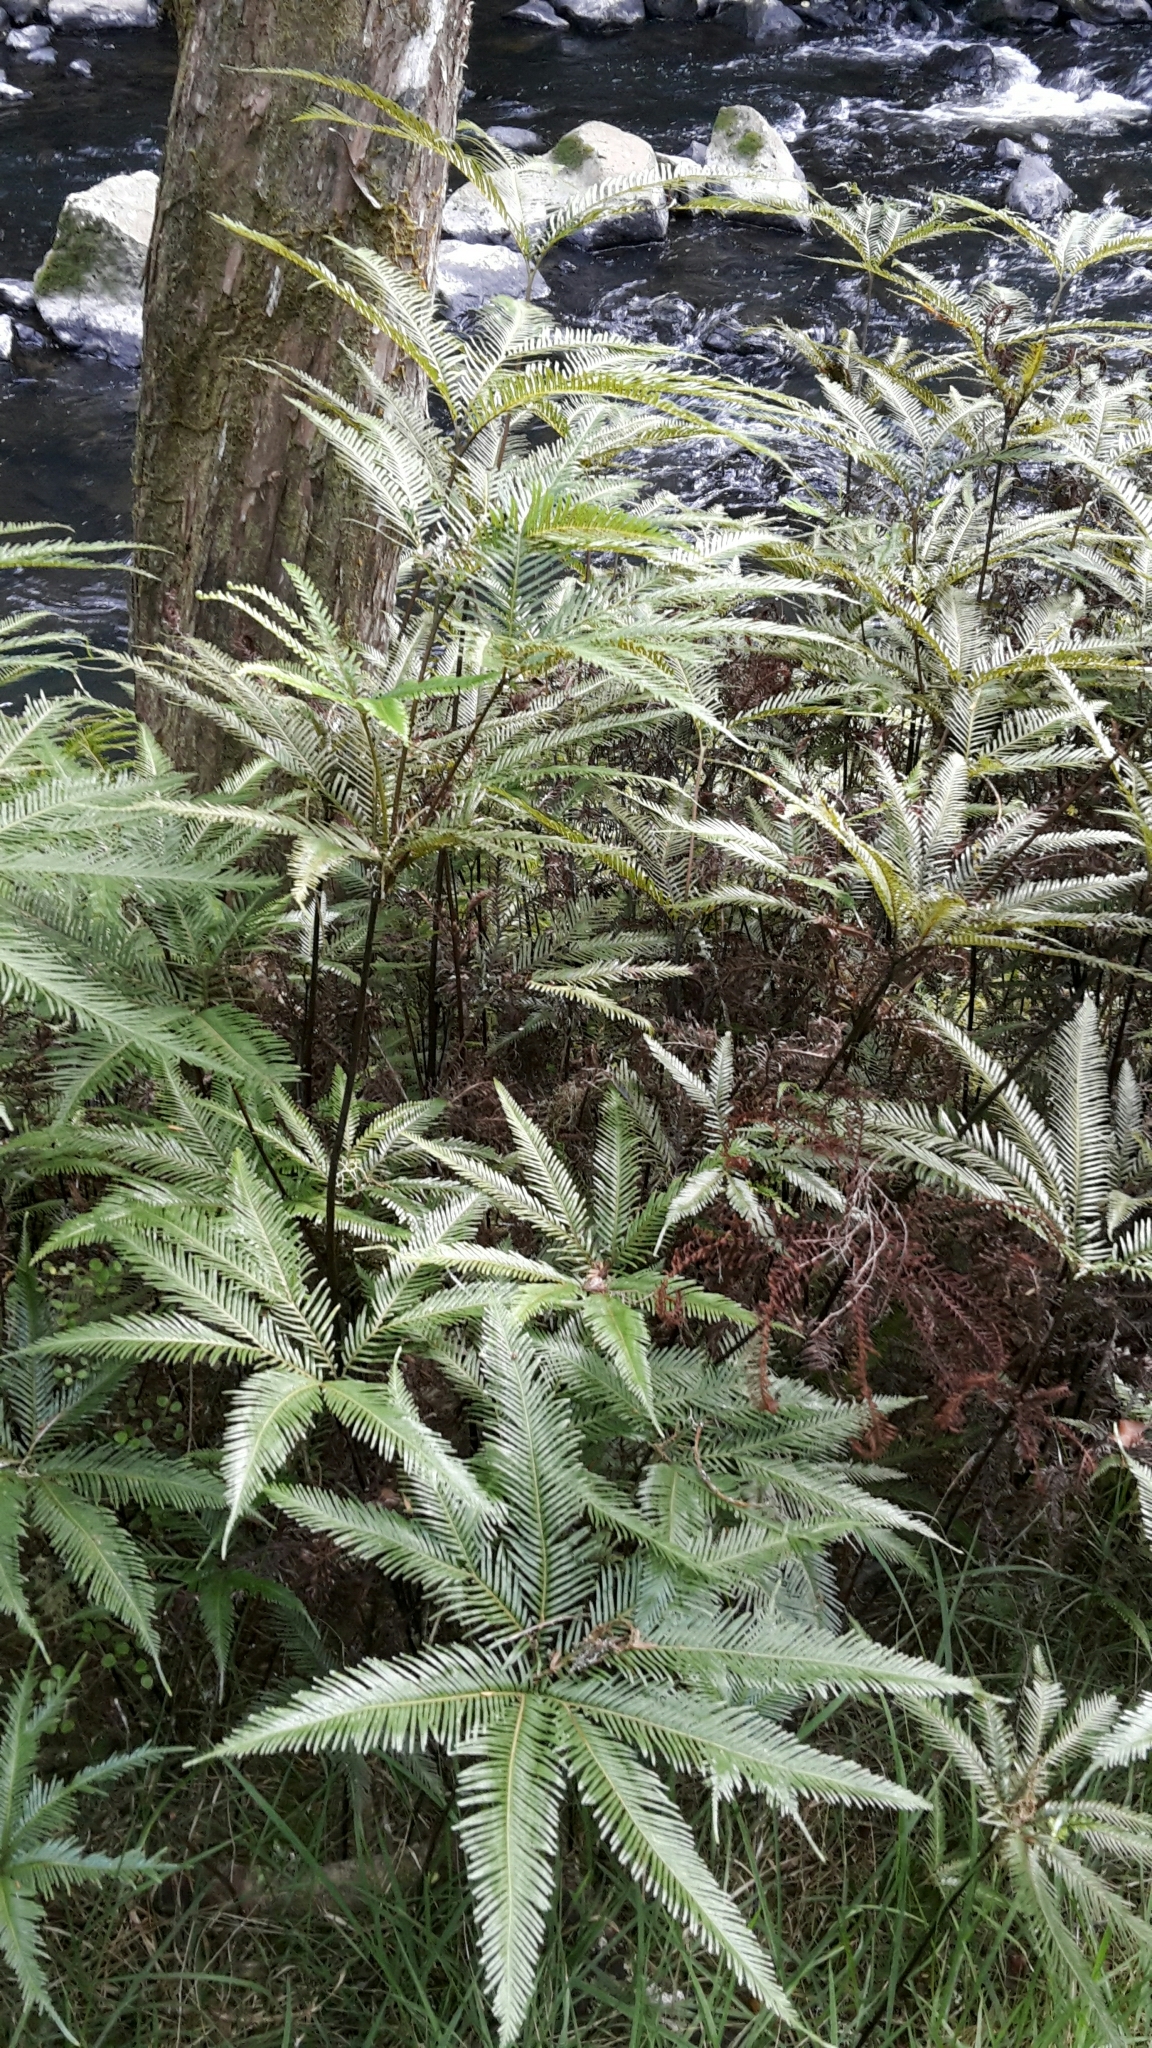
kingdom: Plantae
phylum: Tracheophyta
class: Polypodiopsida
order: Gleicheniales
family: Gleicheniaceae
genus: Sticherus
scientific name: Sticherus flabellatus
